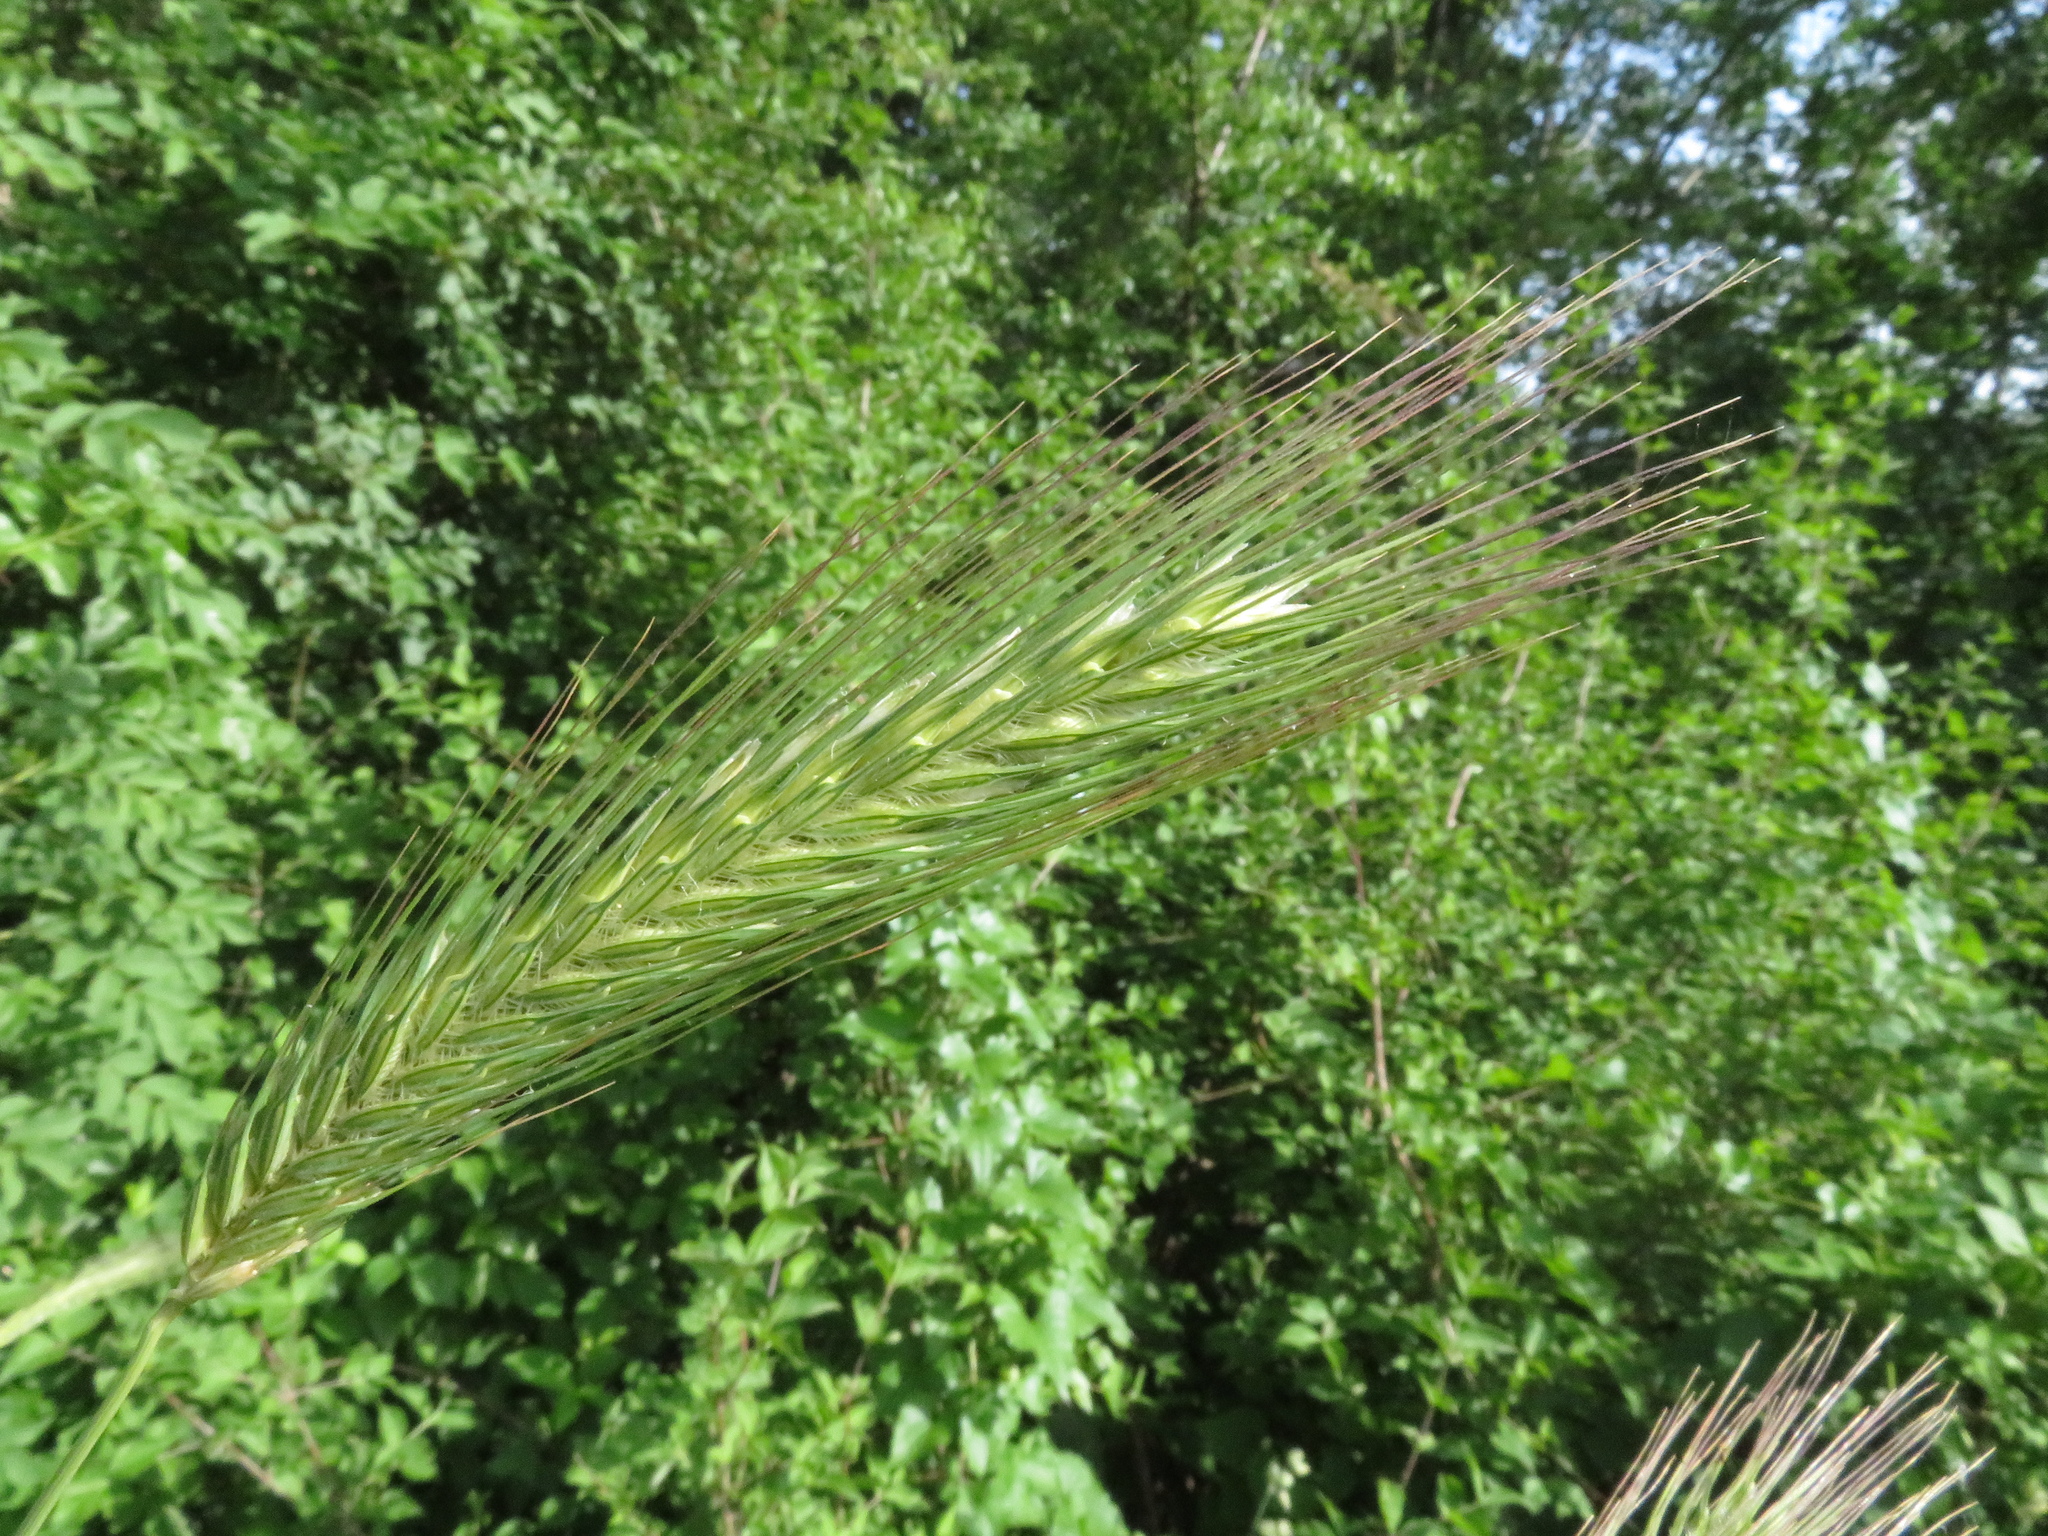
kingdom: Plantae
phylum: Tracheophyta
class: Liliopsida
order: Poales
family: Poaceae
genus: Dasypyrum
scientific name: Dasypyrum villosum
